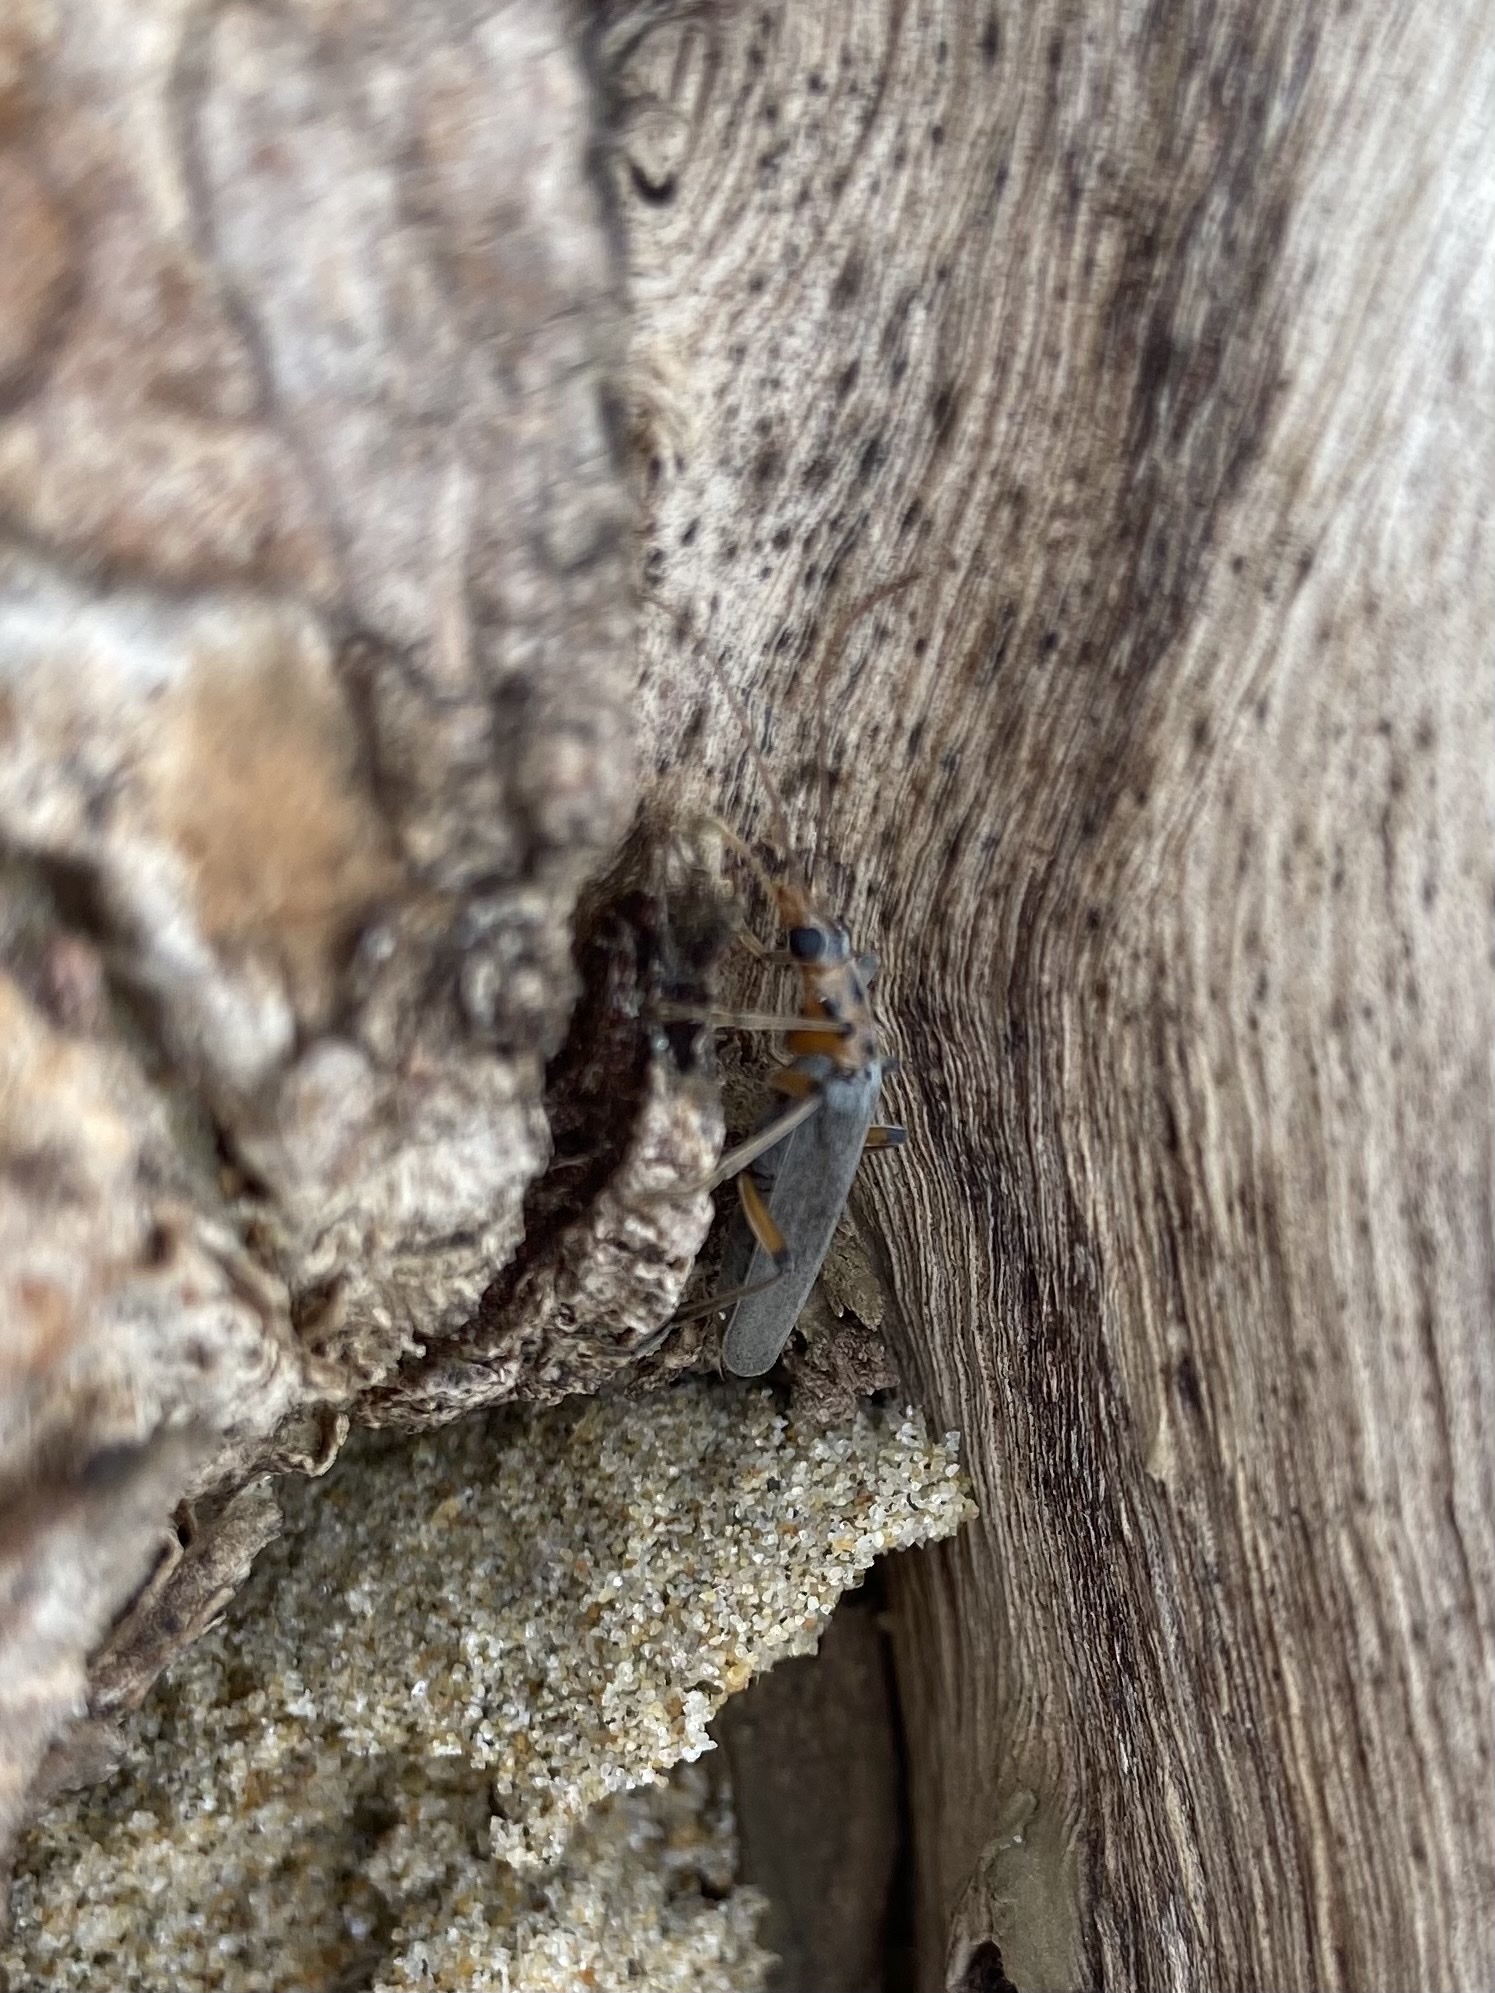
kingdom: Animalia
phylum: Arthropoda
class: Insecta
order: Coleoptera
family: Oedemeridae
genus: Copidita
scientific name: Copidita quadrimaculata
